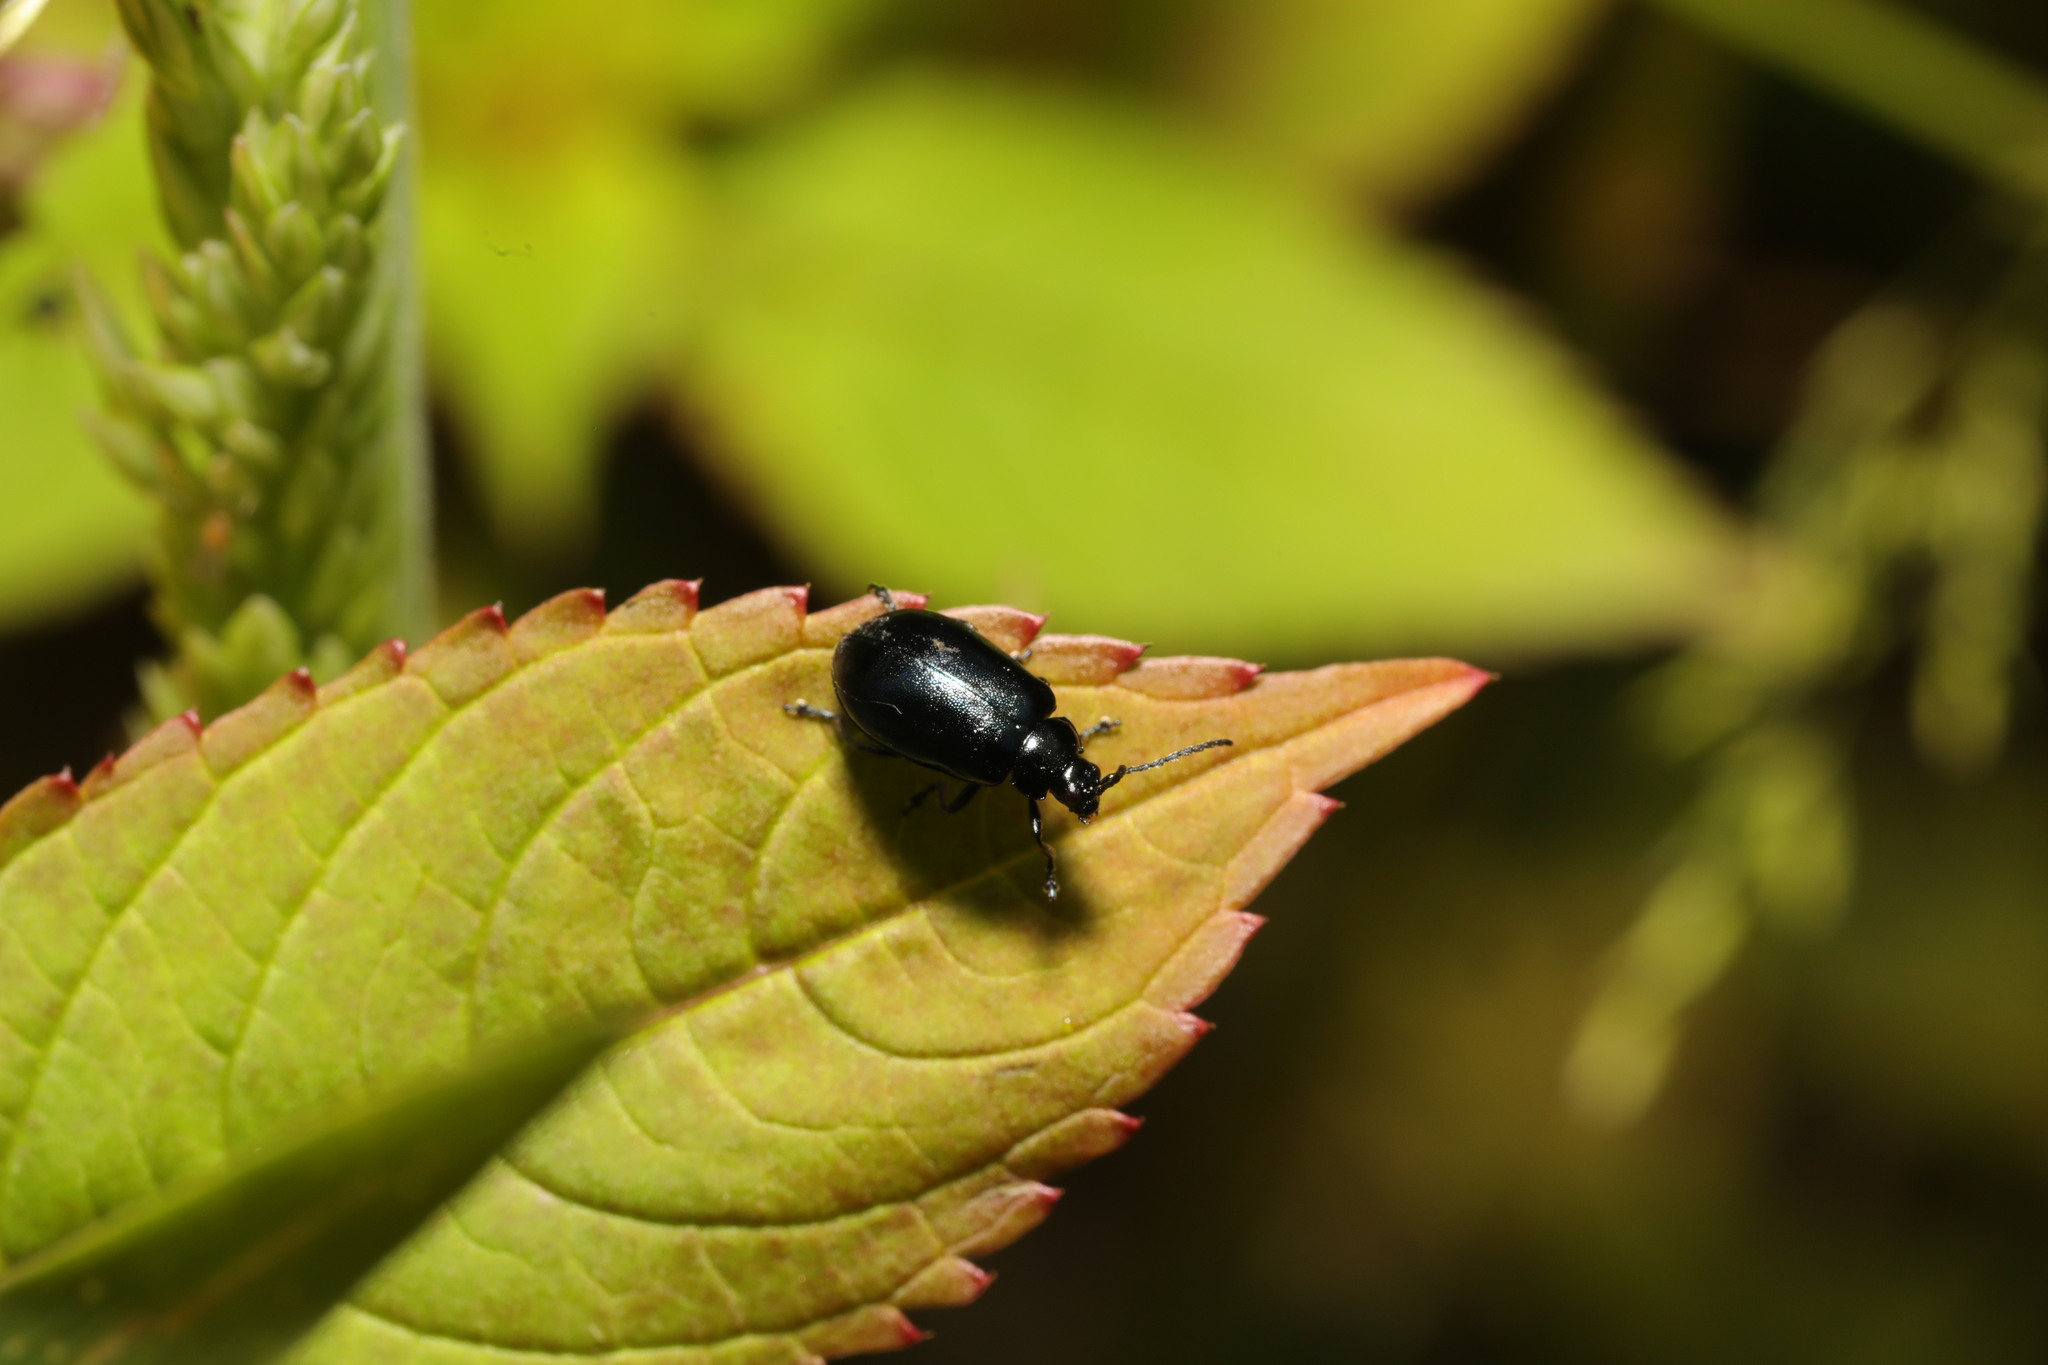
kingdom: Animalia
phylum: Arthropoda
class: Insecta
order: Coleoptera
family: Chrysomelidae
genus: Agelastica
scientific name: Agelastica alni
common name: Alder leaf beetle
